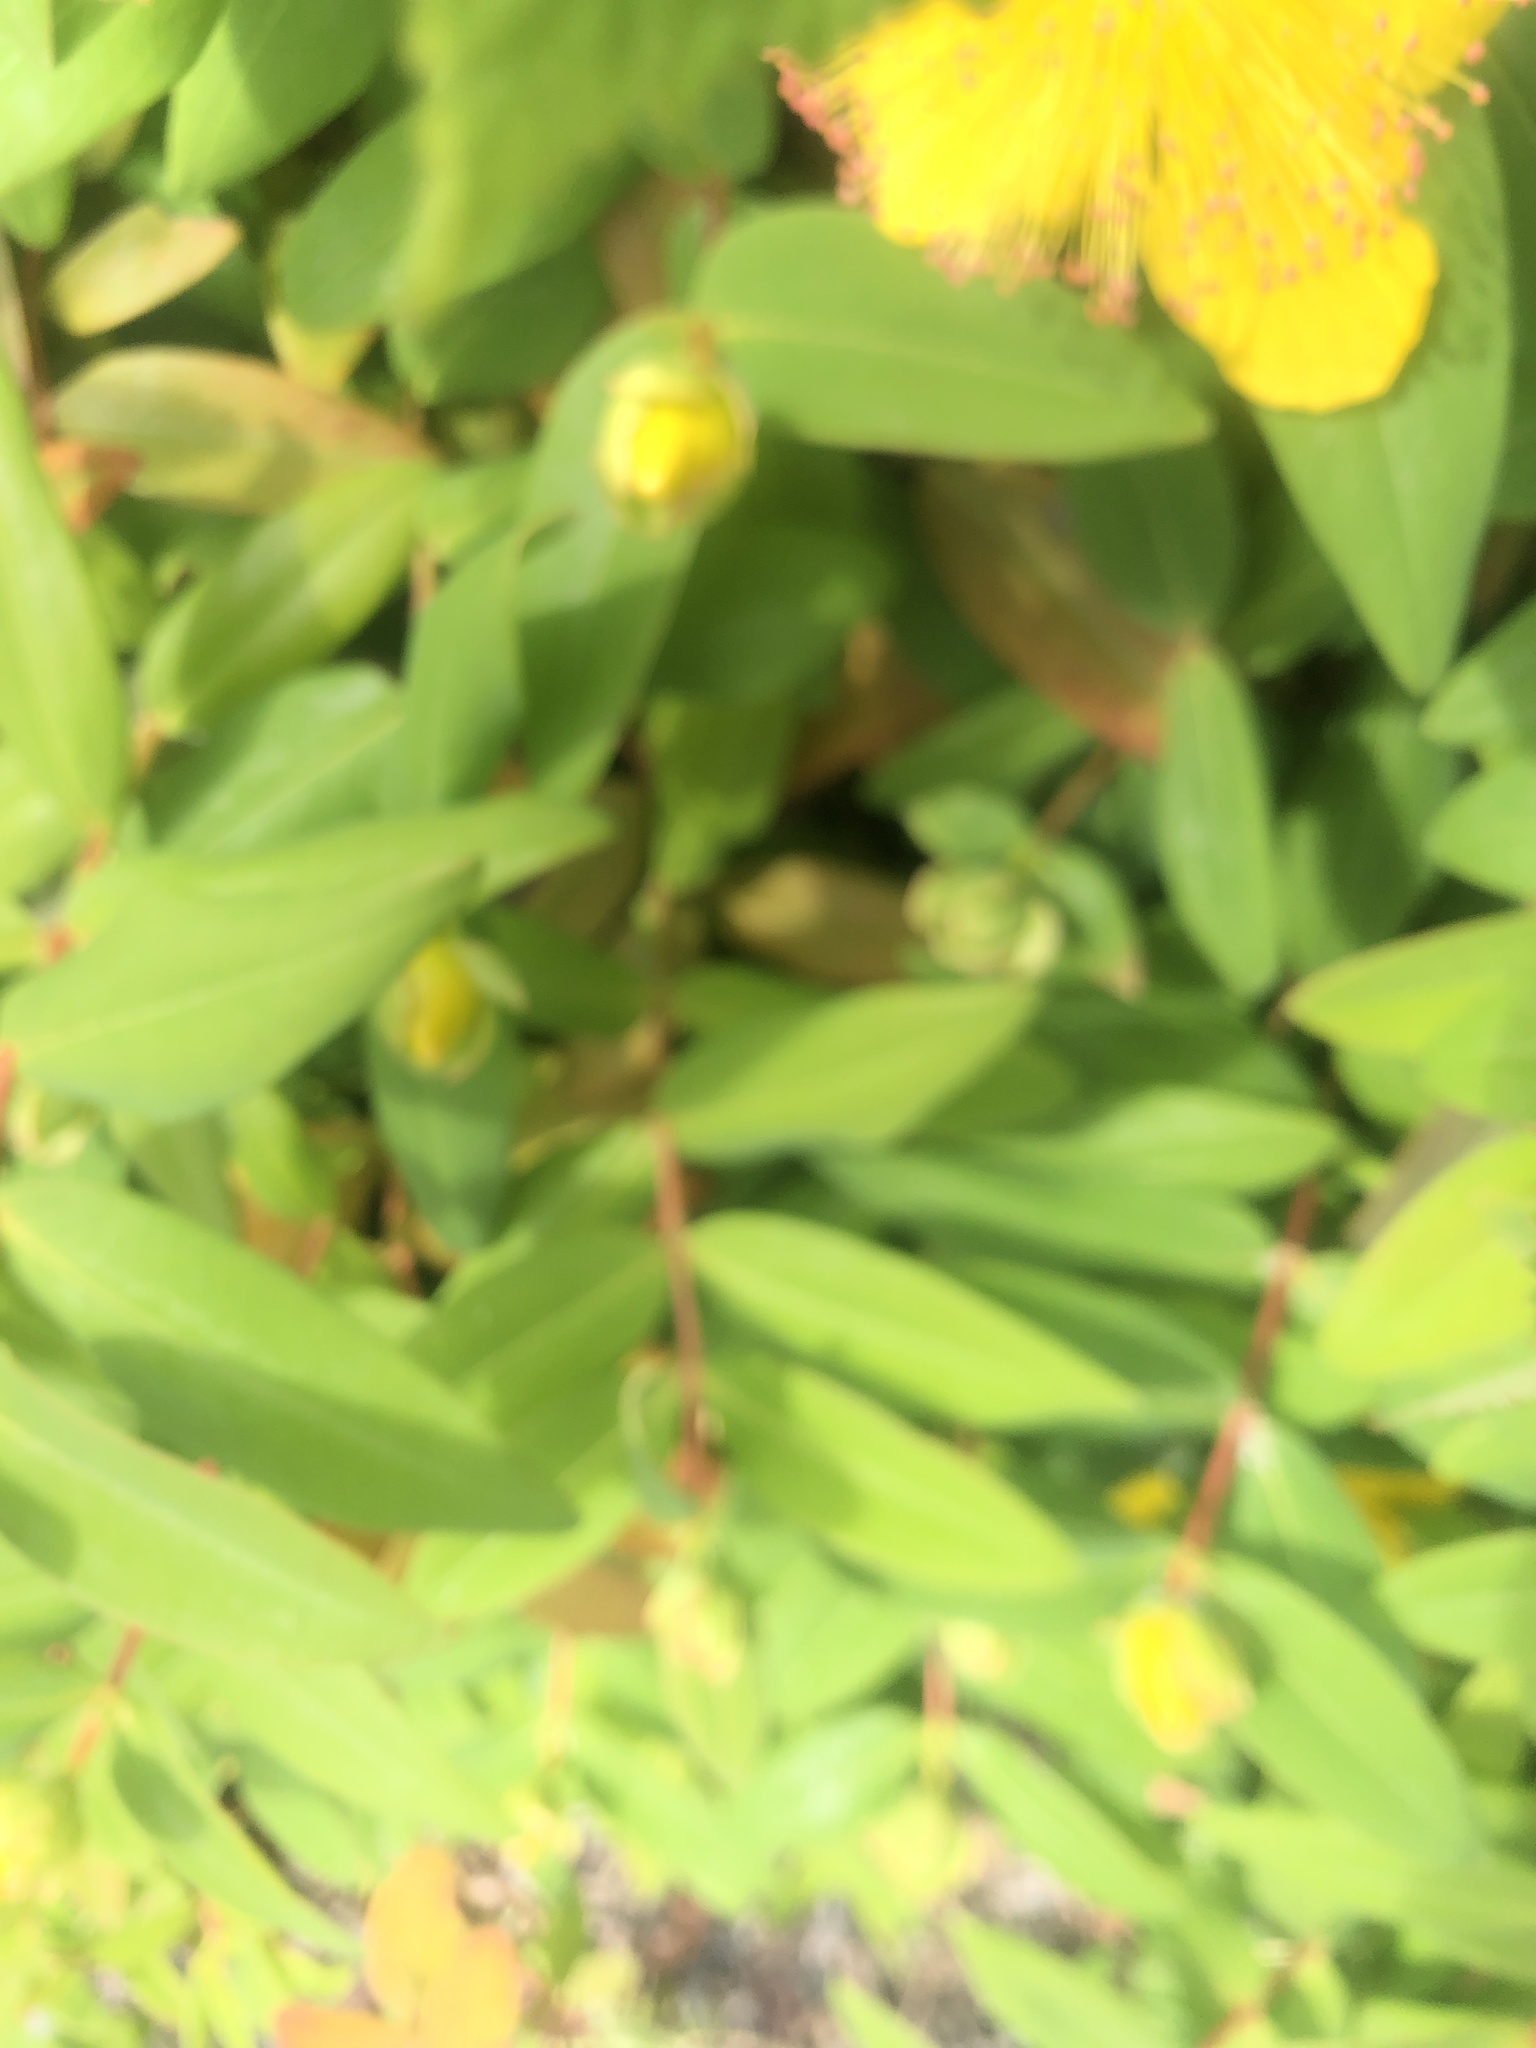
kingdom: Plantae
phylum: Tracheophyta
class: Magnoliopsida
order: Malpighiales
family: Hypericaceae
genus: Hypericum
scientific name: Hypericum calycinum
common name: Rose-of-sharon
